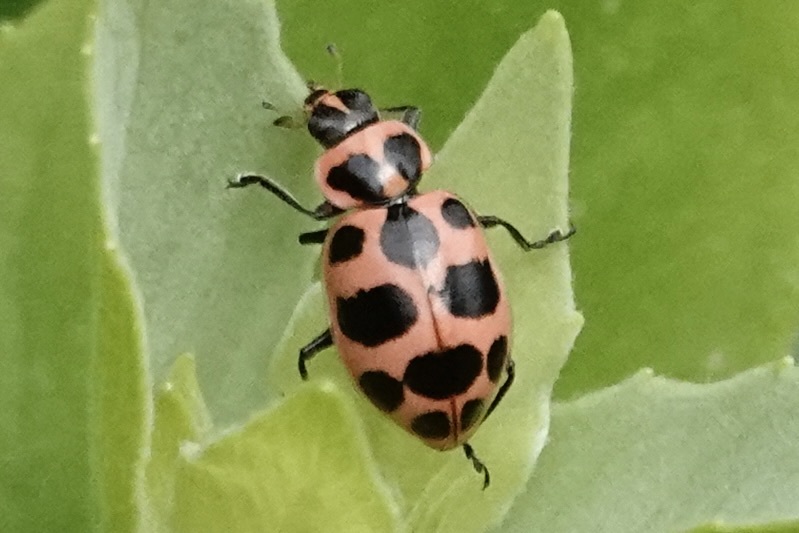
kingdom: Animalia
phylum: Arthropoda
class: Insecta
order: Coleoptera
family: Coccinellidae
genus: Coleomegilla
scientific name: Coleomegilla maculata
